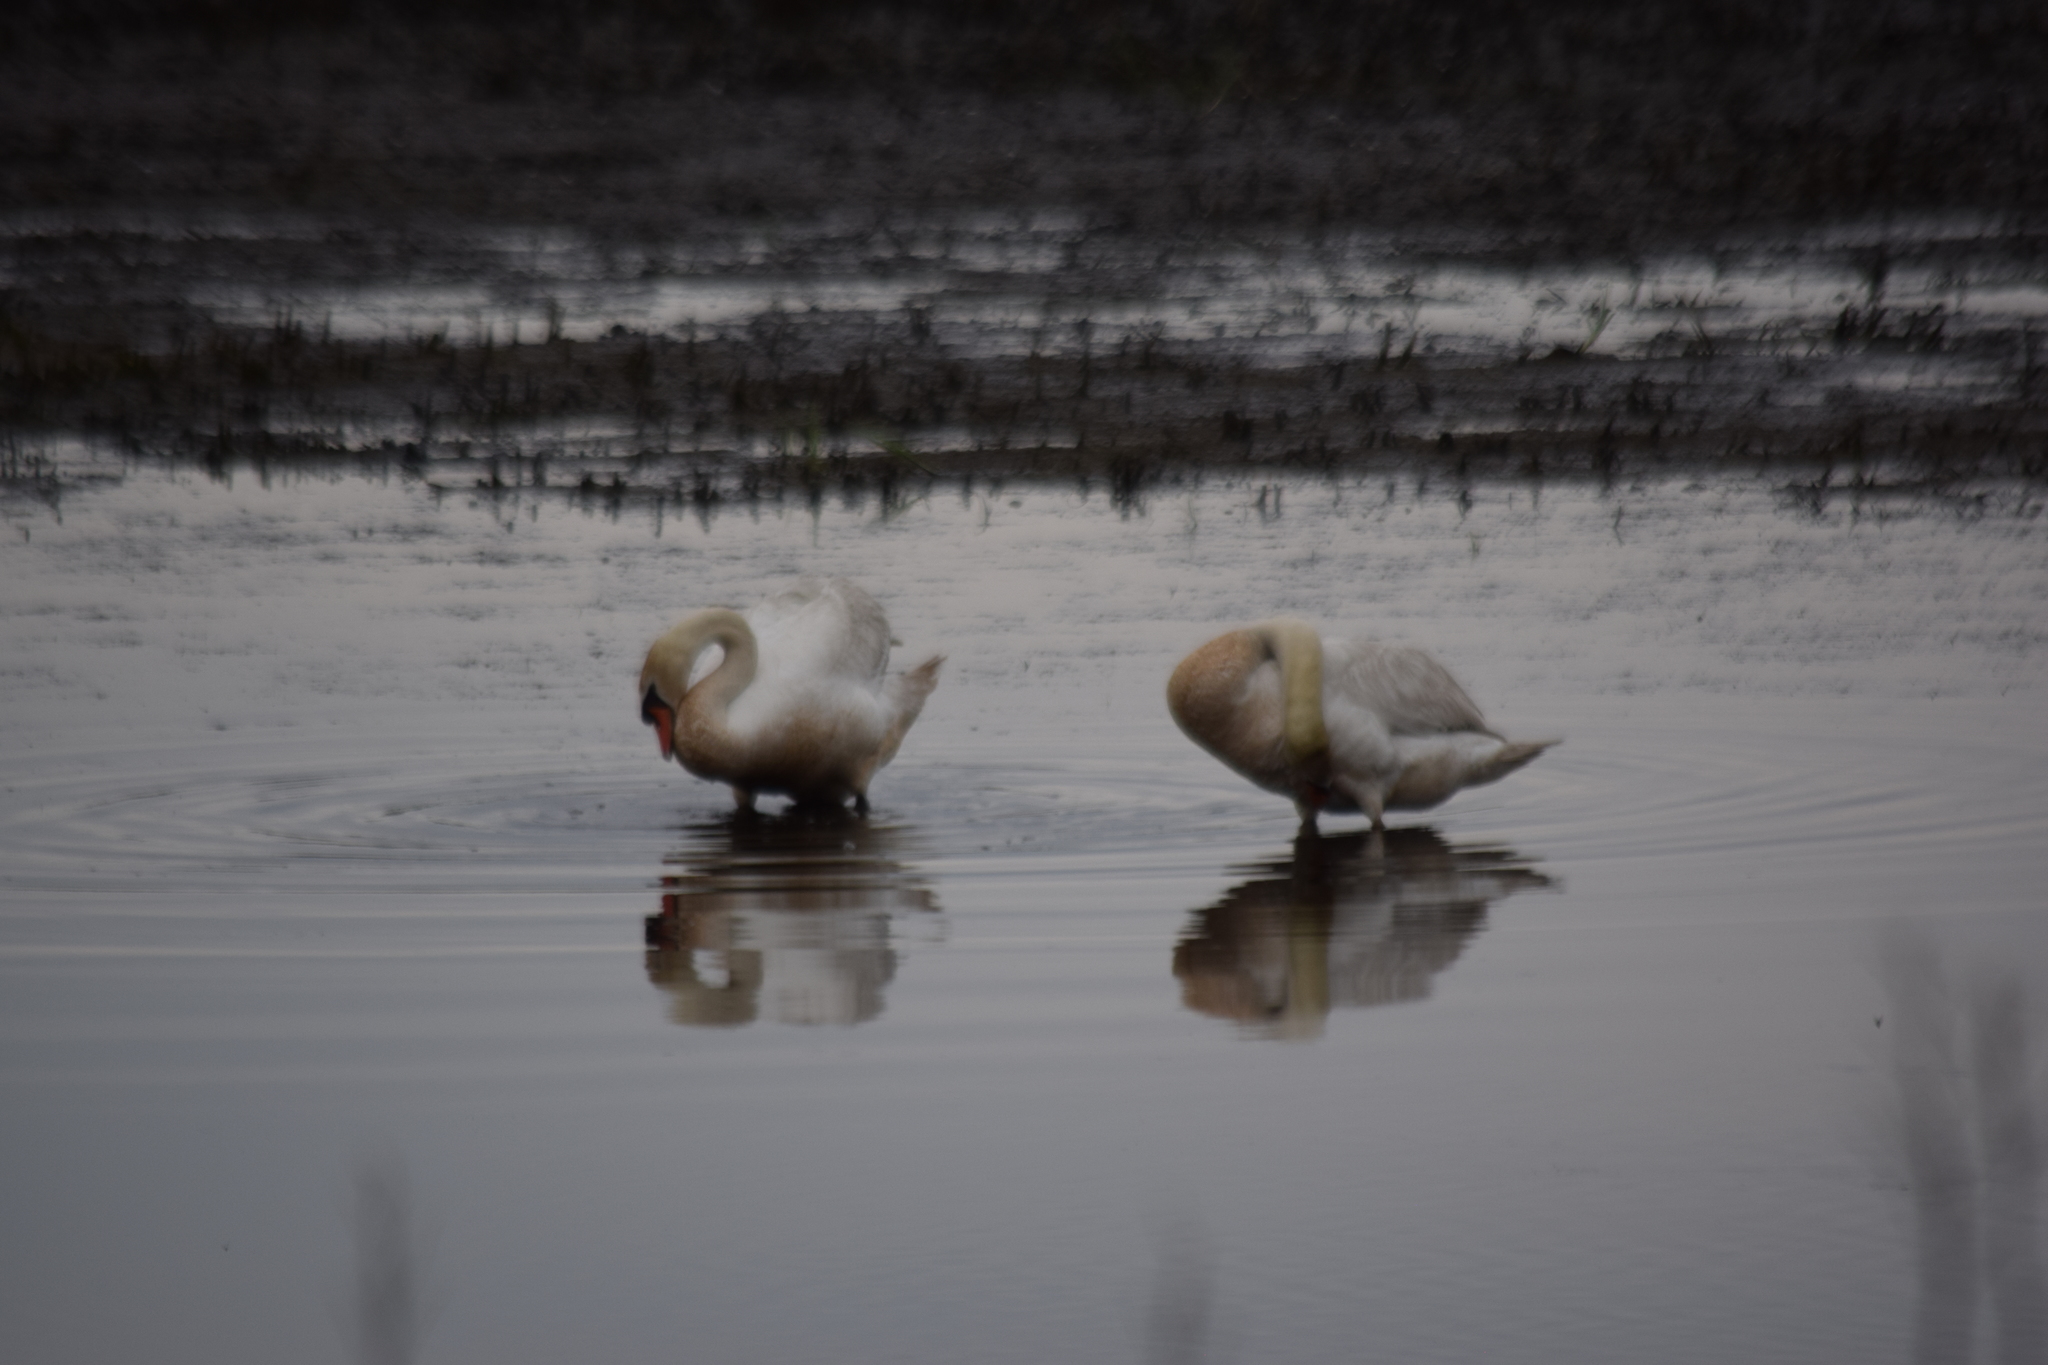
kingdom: Animalia
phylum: Chordata
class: Aves
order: Anseriformes
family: Anatidae
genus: Cygnus
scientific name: Cygnus olor
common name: Mute swan
